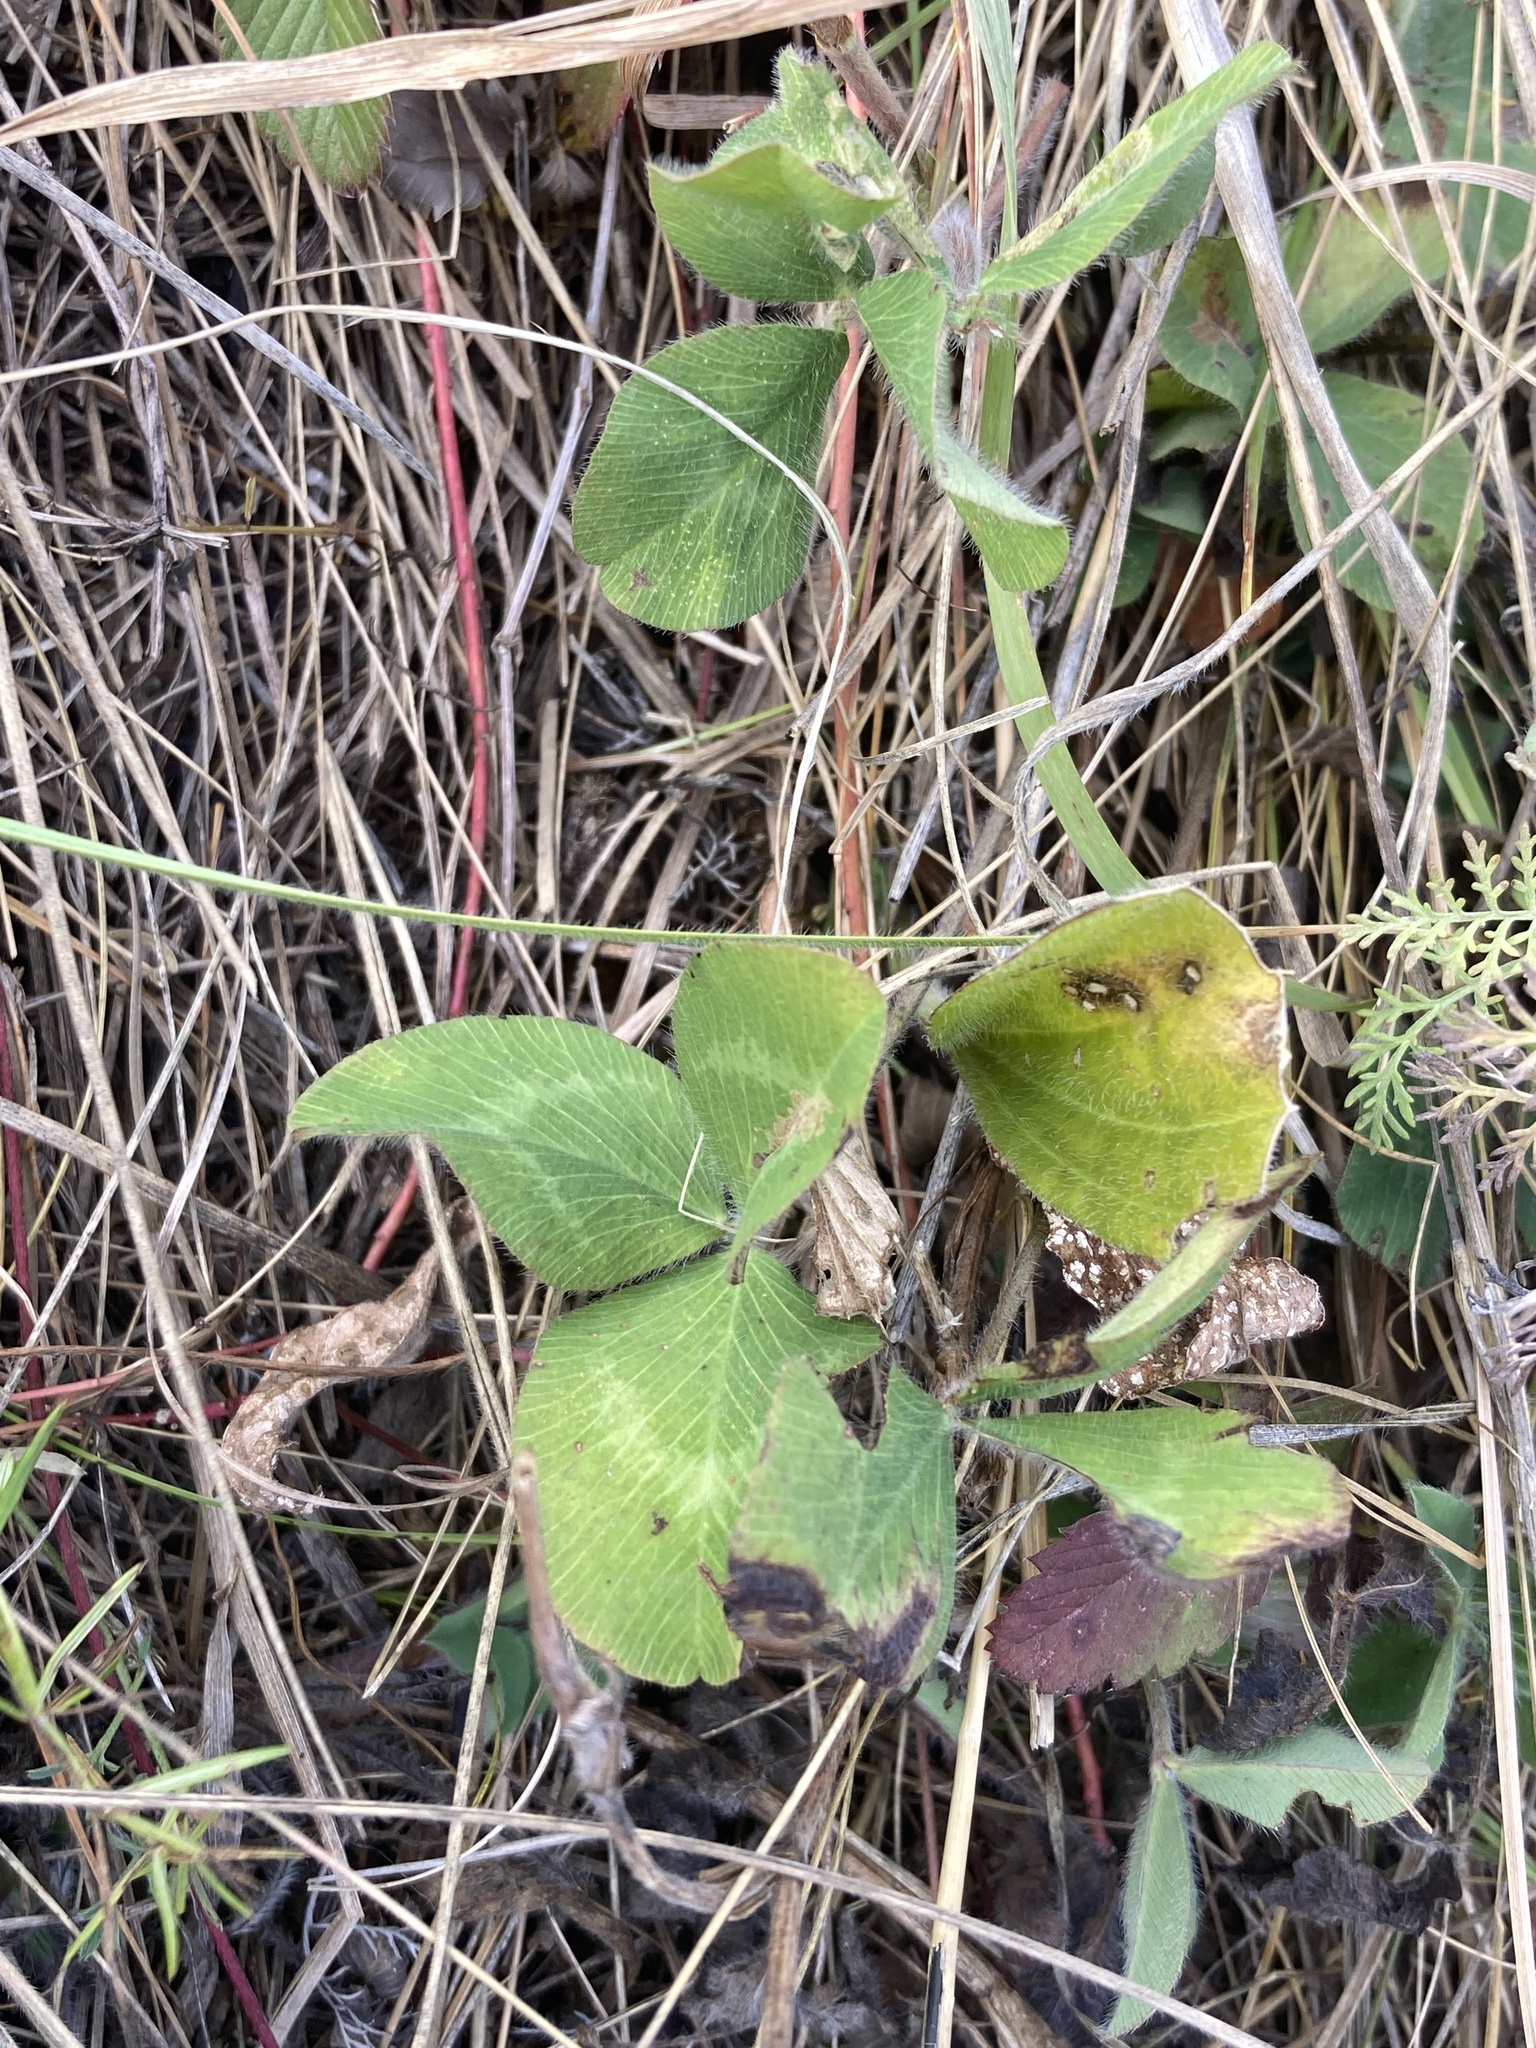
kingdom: Plantae
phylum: Tracheophyta
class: Magnoliopsida
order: Fabales
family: Fabaceae
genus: Trifolium
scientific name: Trifolium pratense
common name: Red clover
